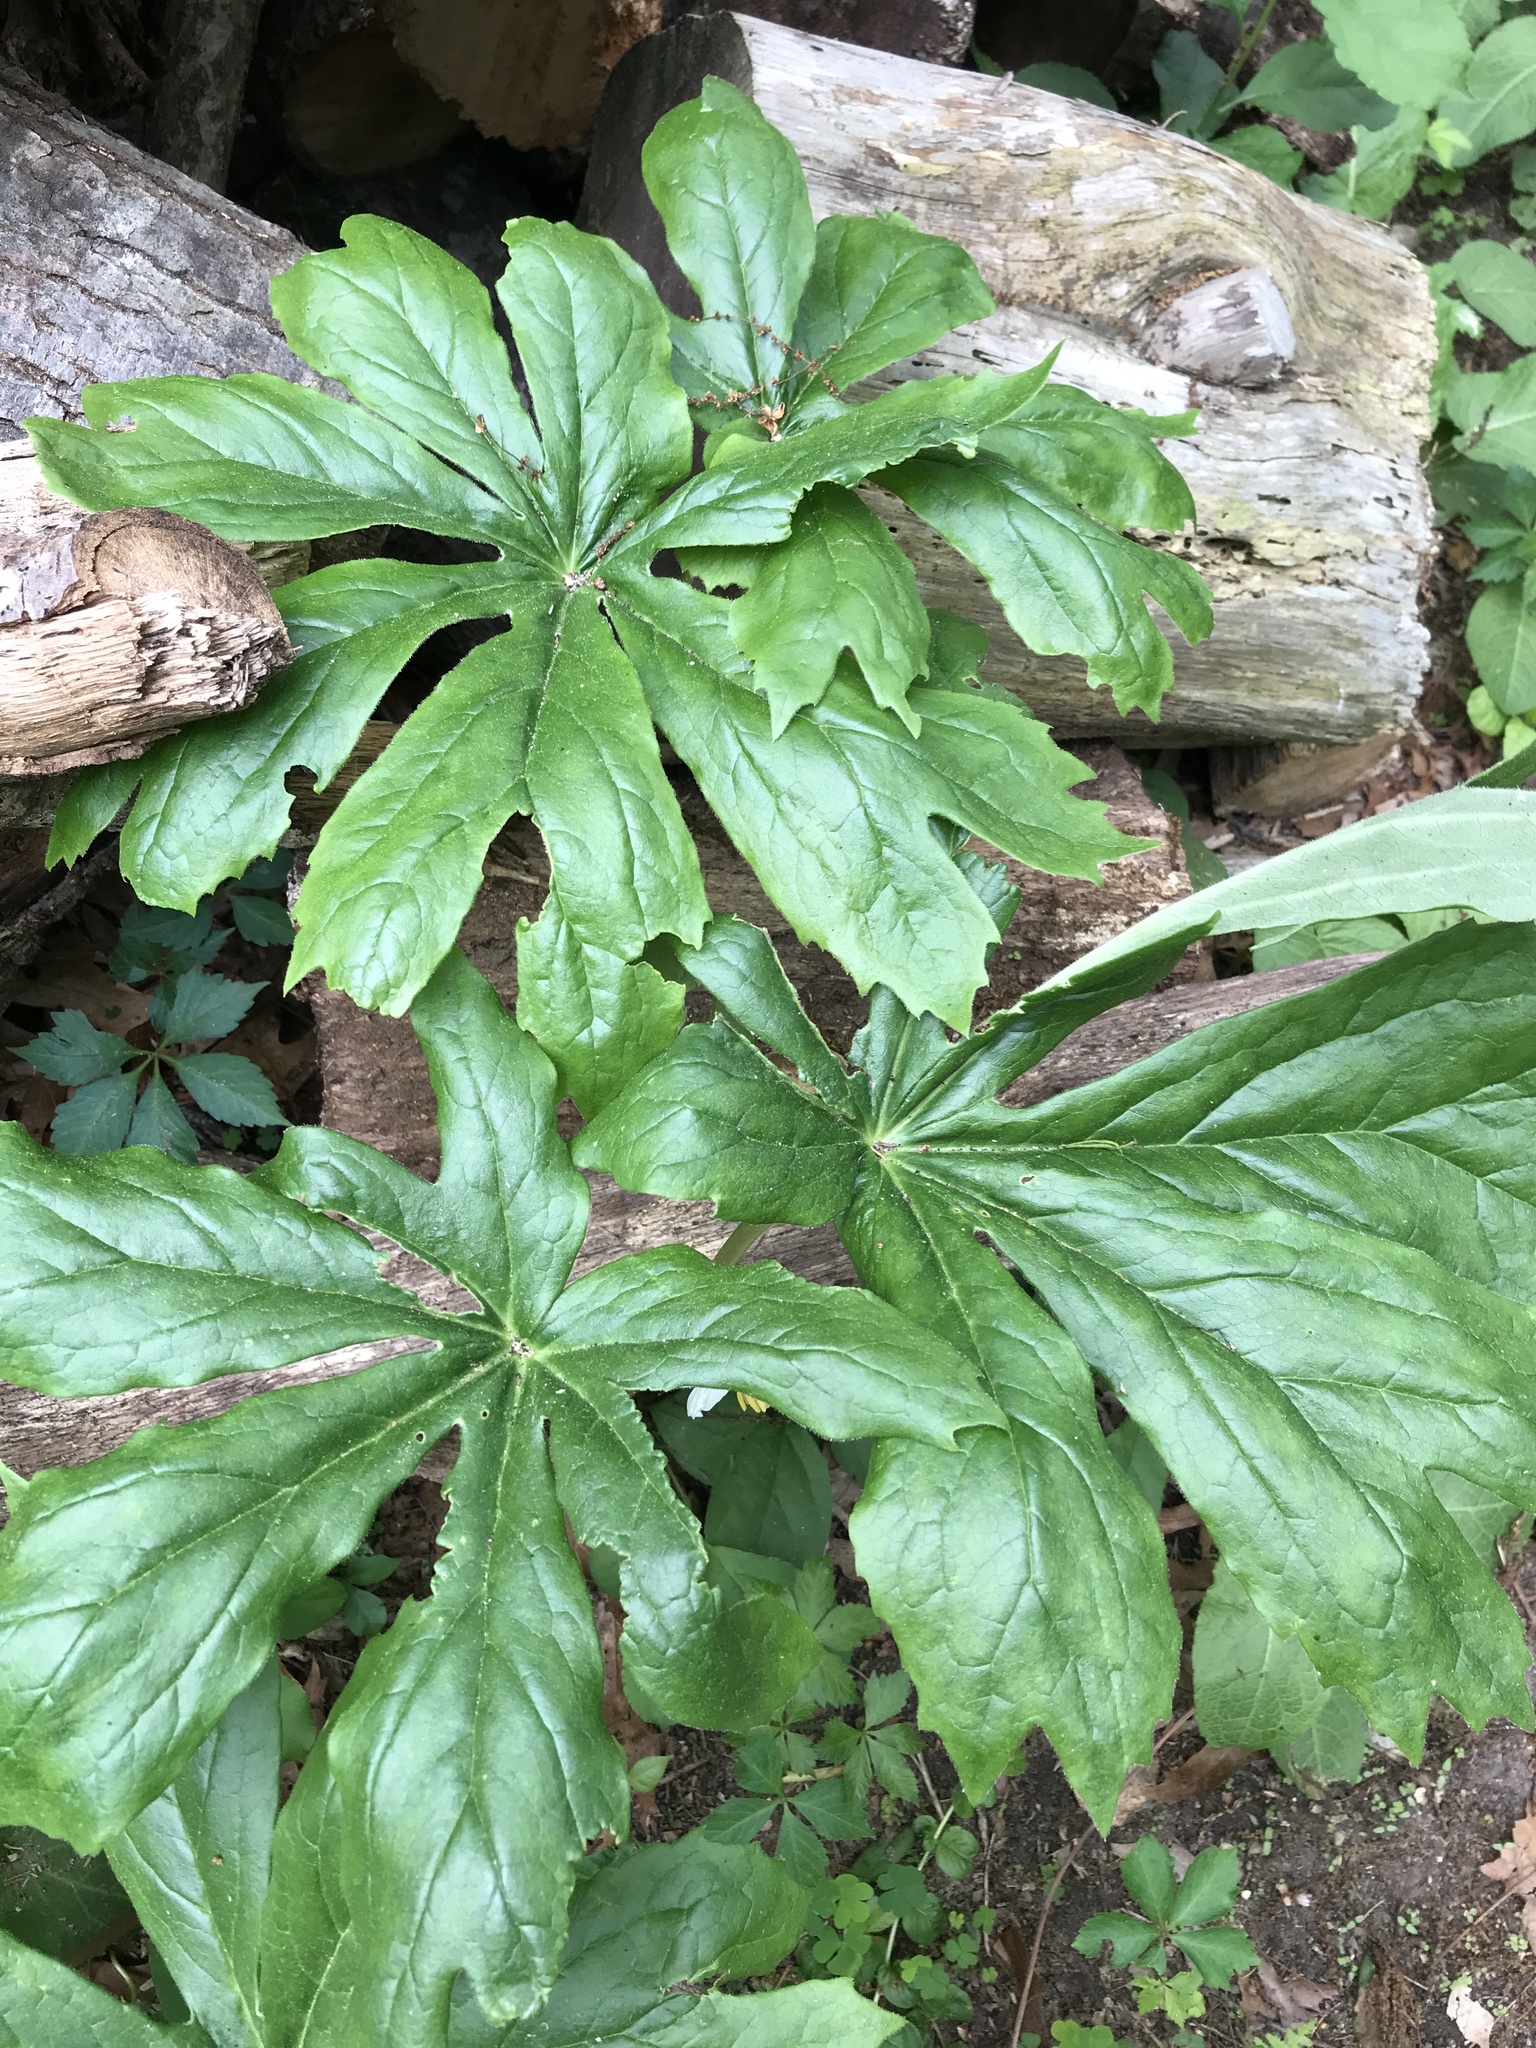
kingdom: Plantae
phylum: Tracheophyta
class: Magnoliopsida
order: Ranunculales
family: Berberidaceae
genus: Podophyllum
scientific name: Podophyllum peltatum
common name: Wild mandrake
